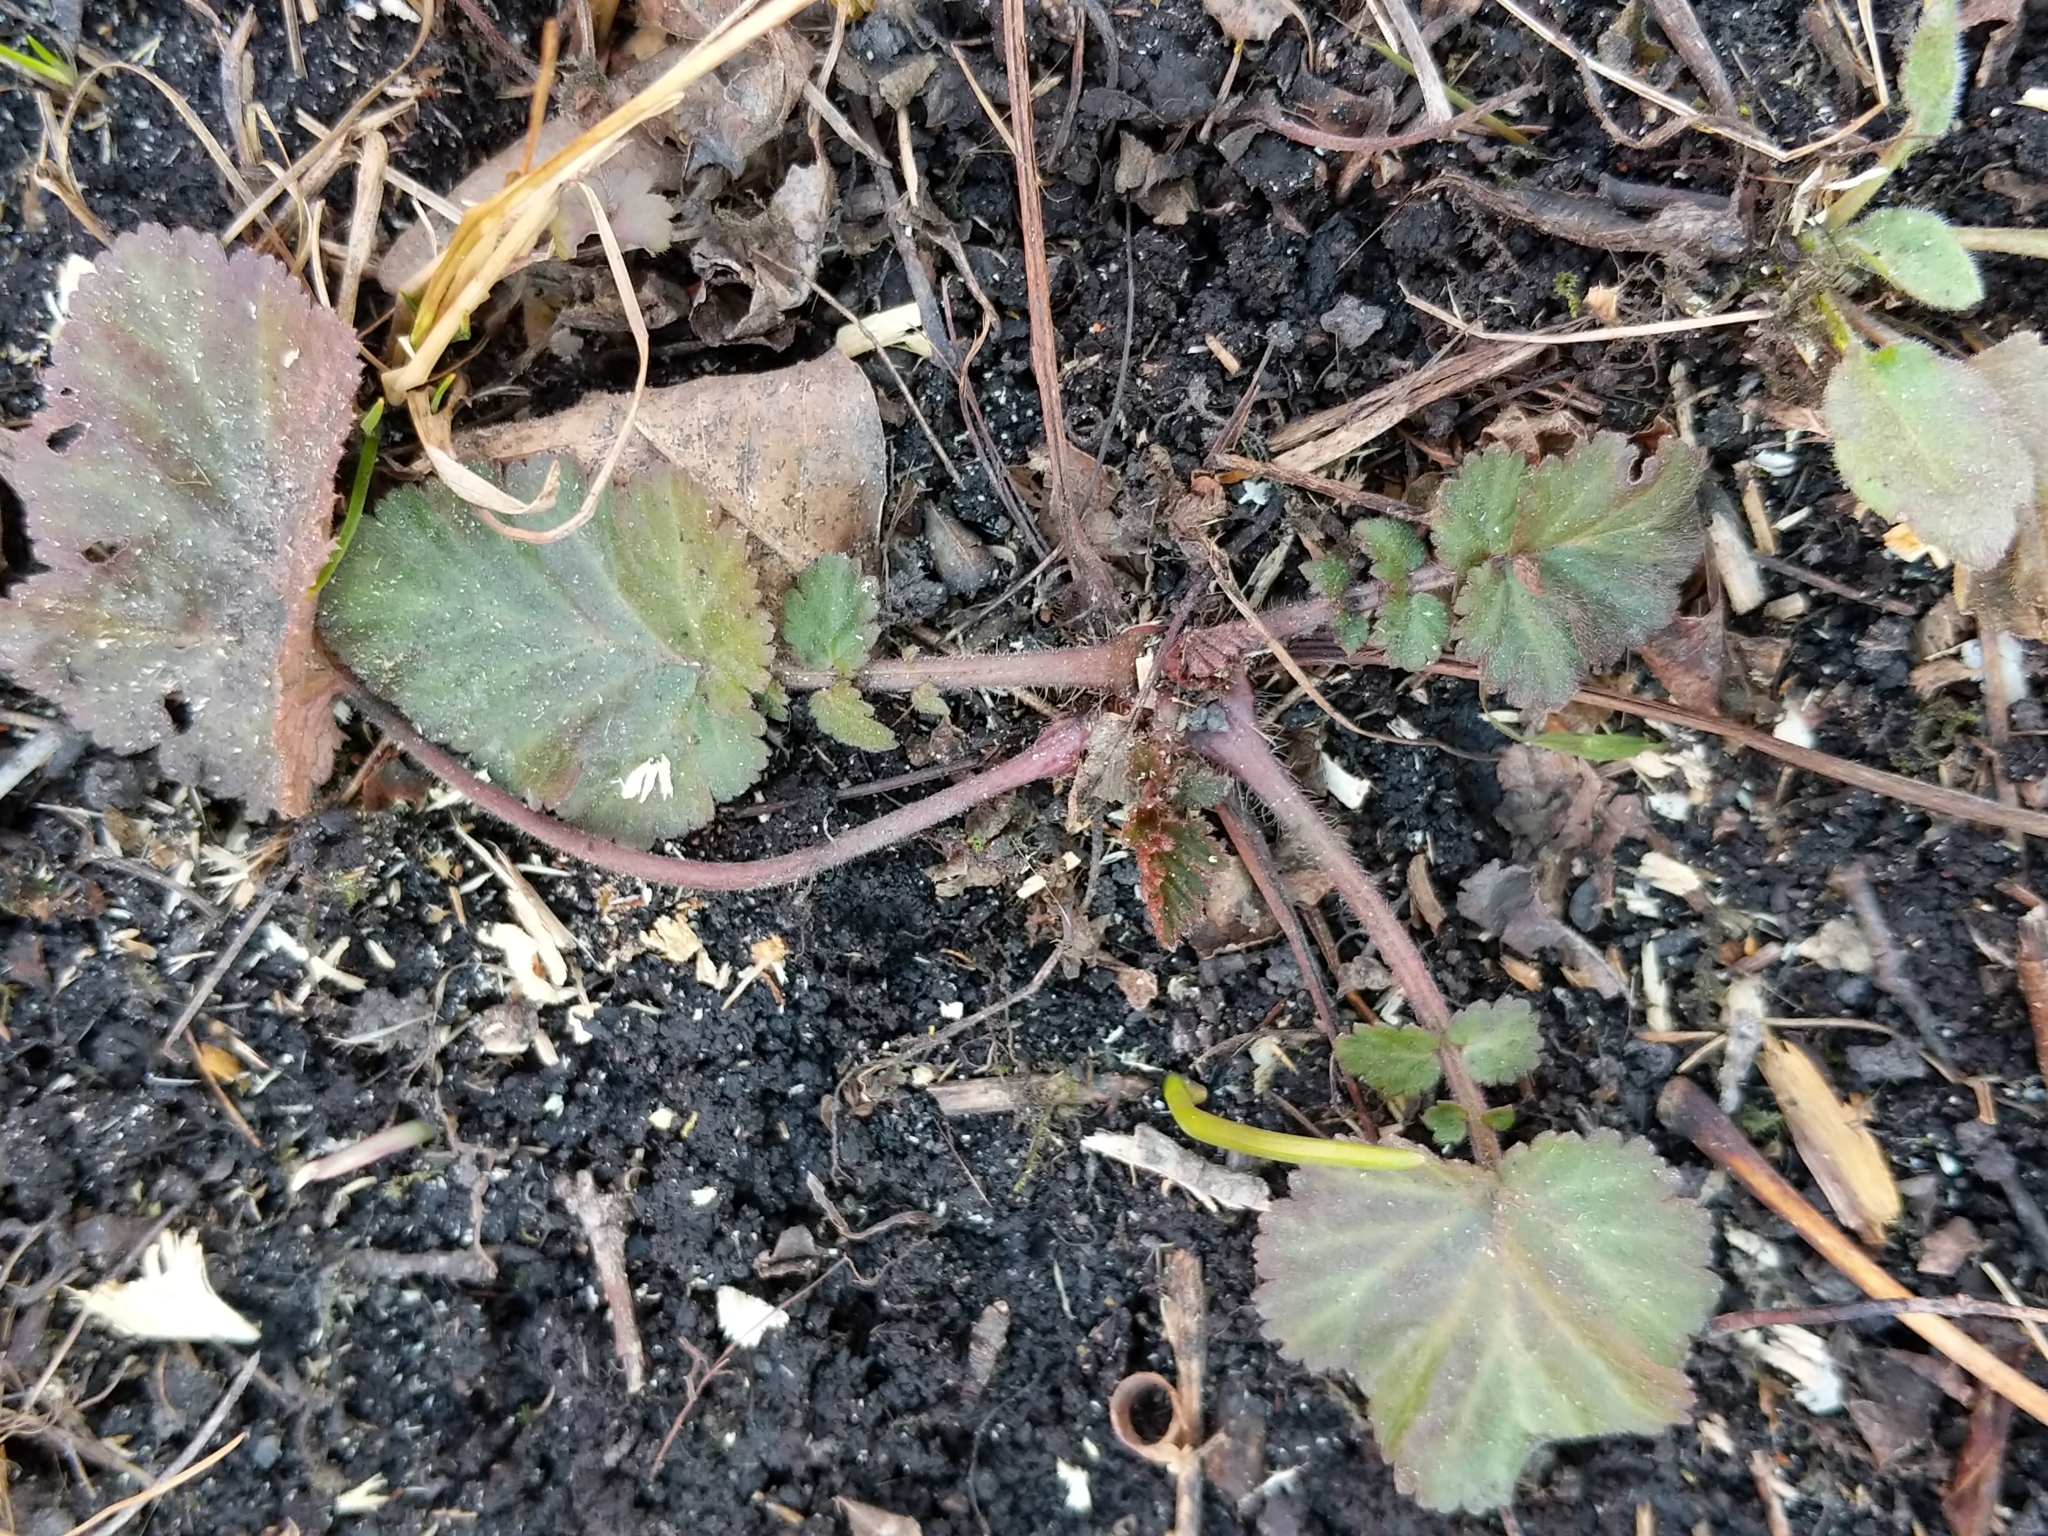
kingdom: Plantae
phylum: Tracheophyta
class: Magnoliopsida
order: Rosales
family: Rosaceae
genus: Geum
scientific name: Geum canadense
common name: White avens
